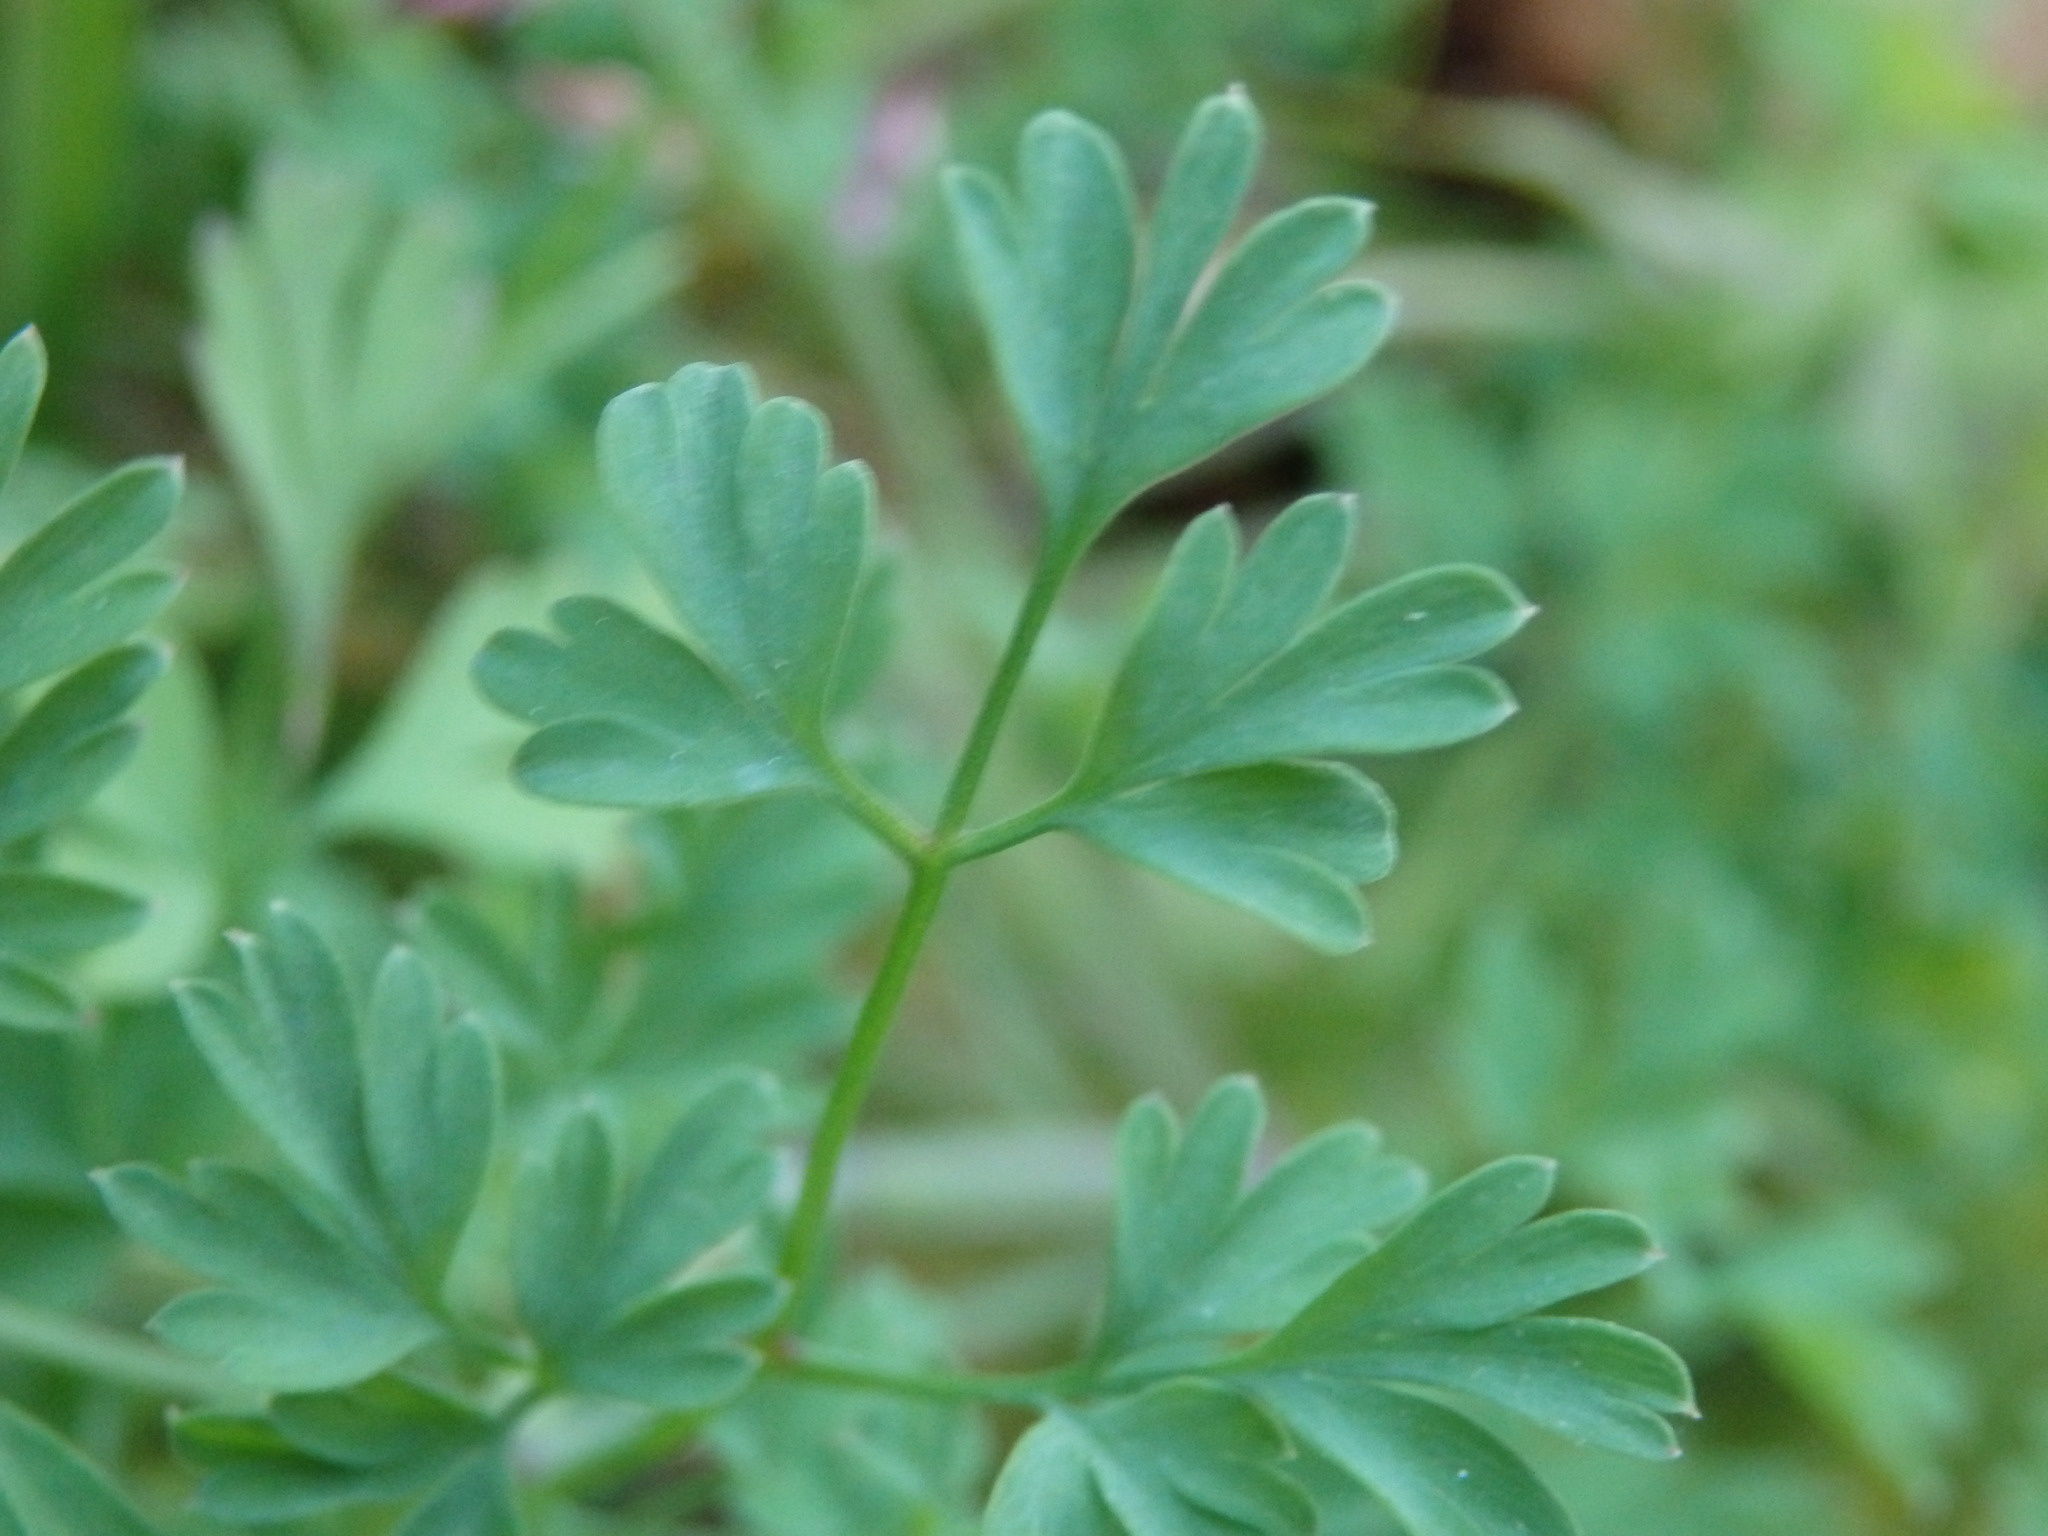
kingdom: Plantae
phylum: Tracheophyta
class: Magnoliopsida
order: Ranunculales
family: Papaveraceae
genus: Fumaria
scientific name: Fumaria muralis
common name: Common ramping-fumitory
